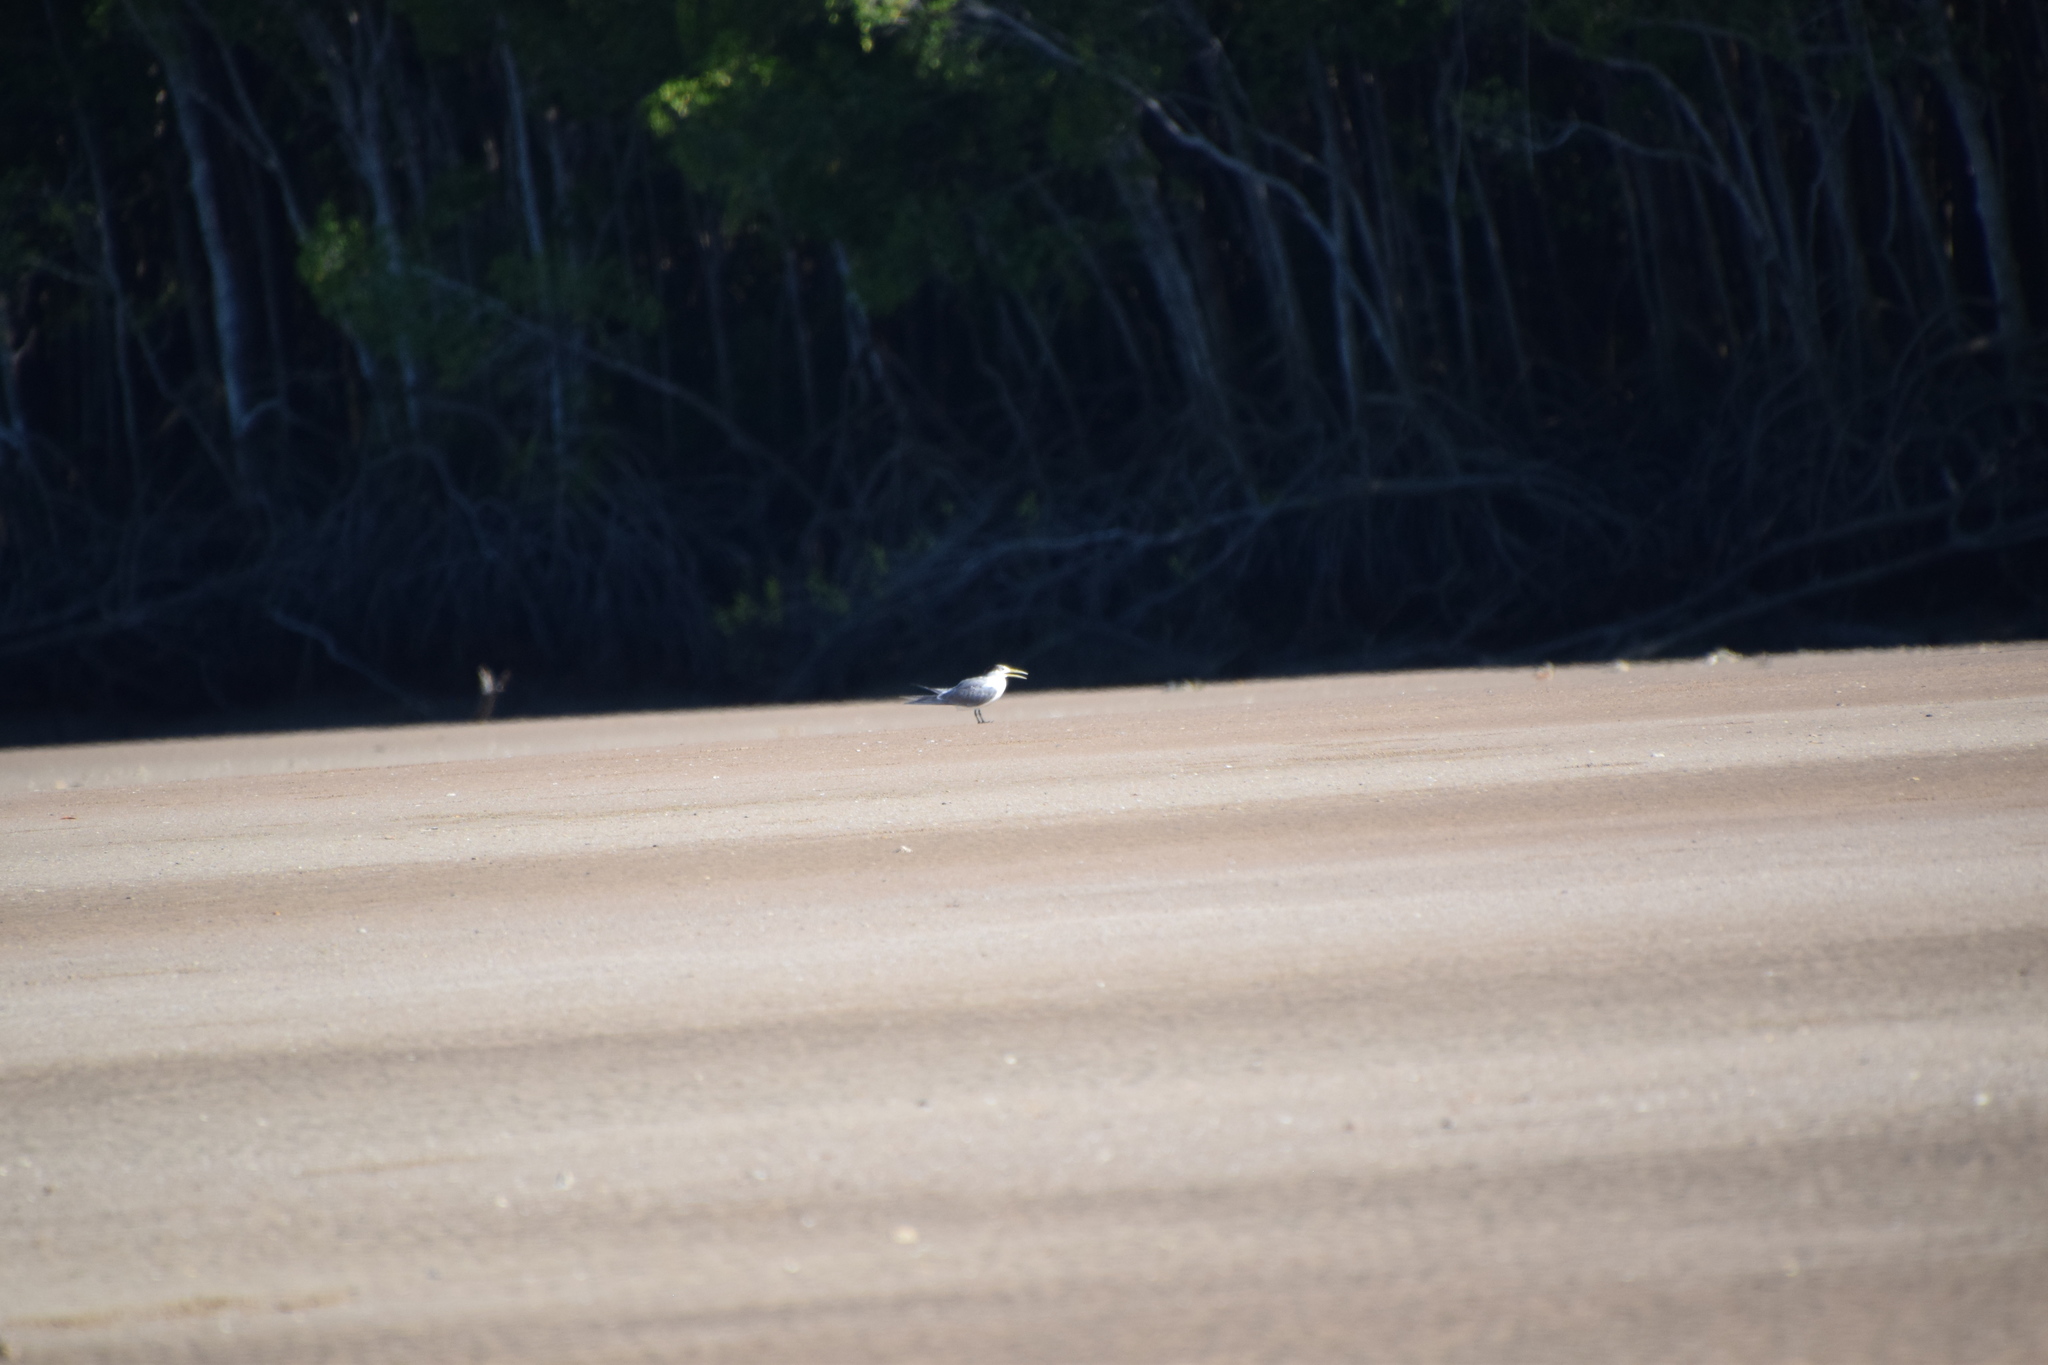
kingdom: Animalia
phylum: Chordata
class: Aves
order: Charadriiformes
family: Laridae
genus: Thalasseus
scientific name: Thalasseus bergii
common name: Greater crested tern
